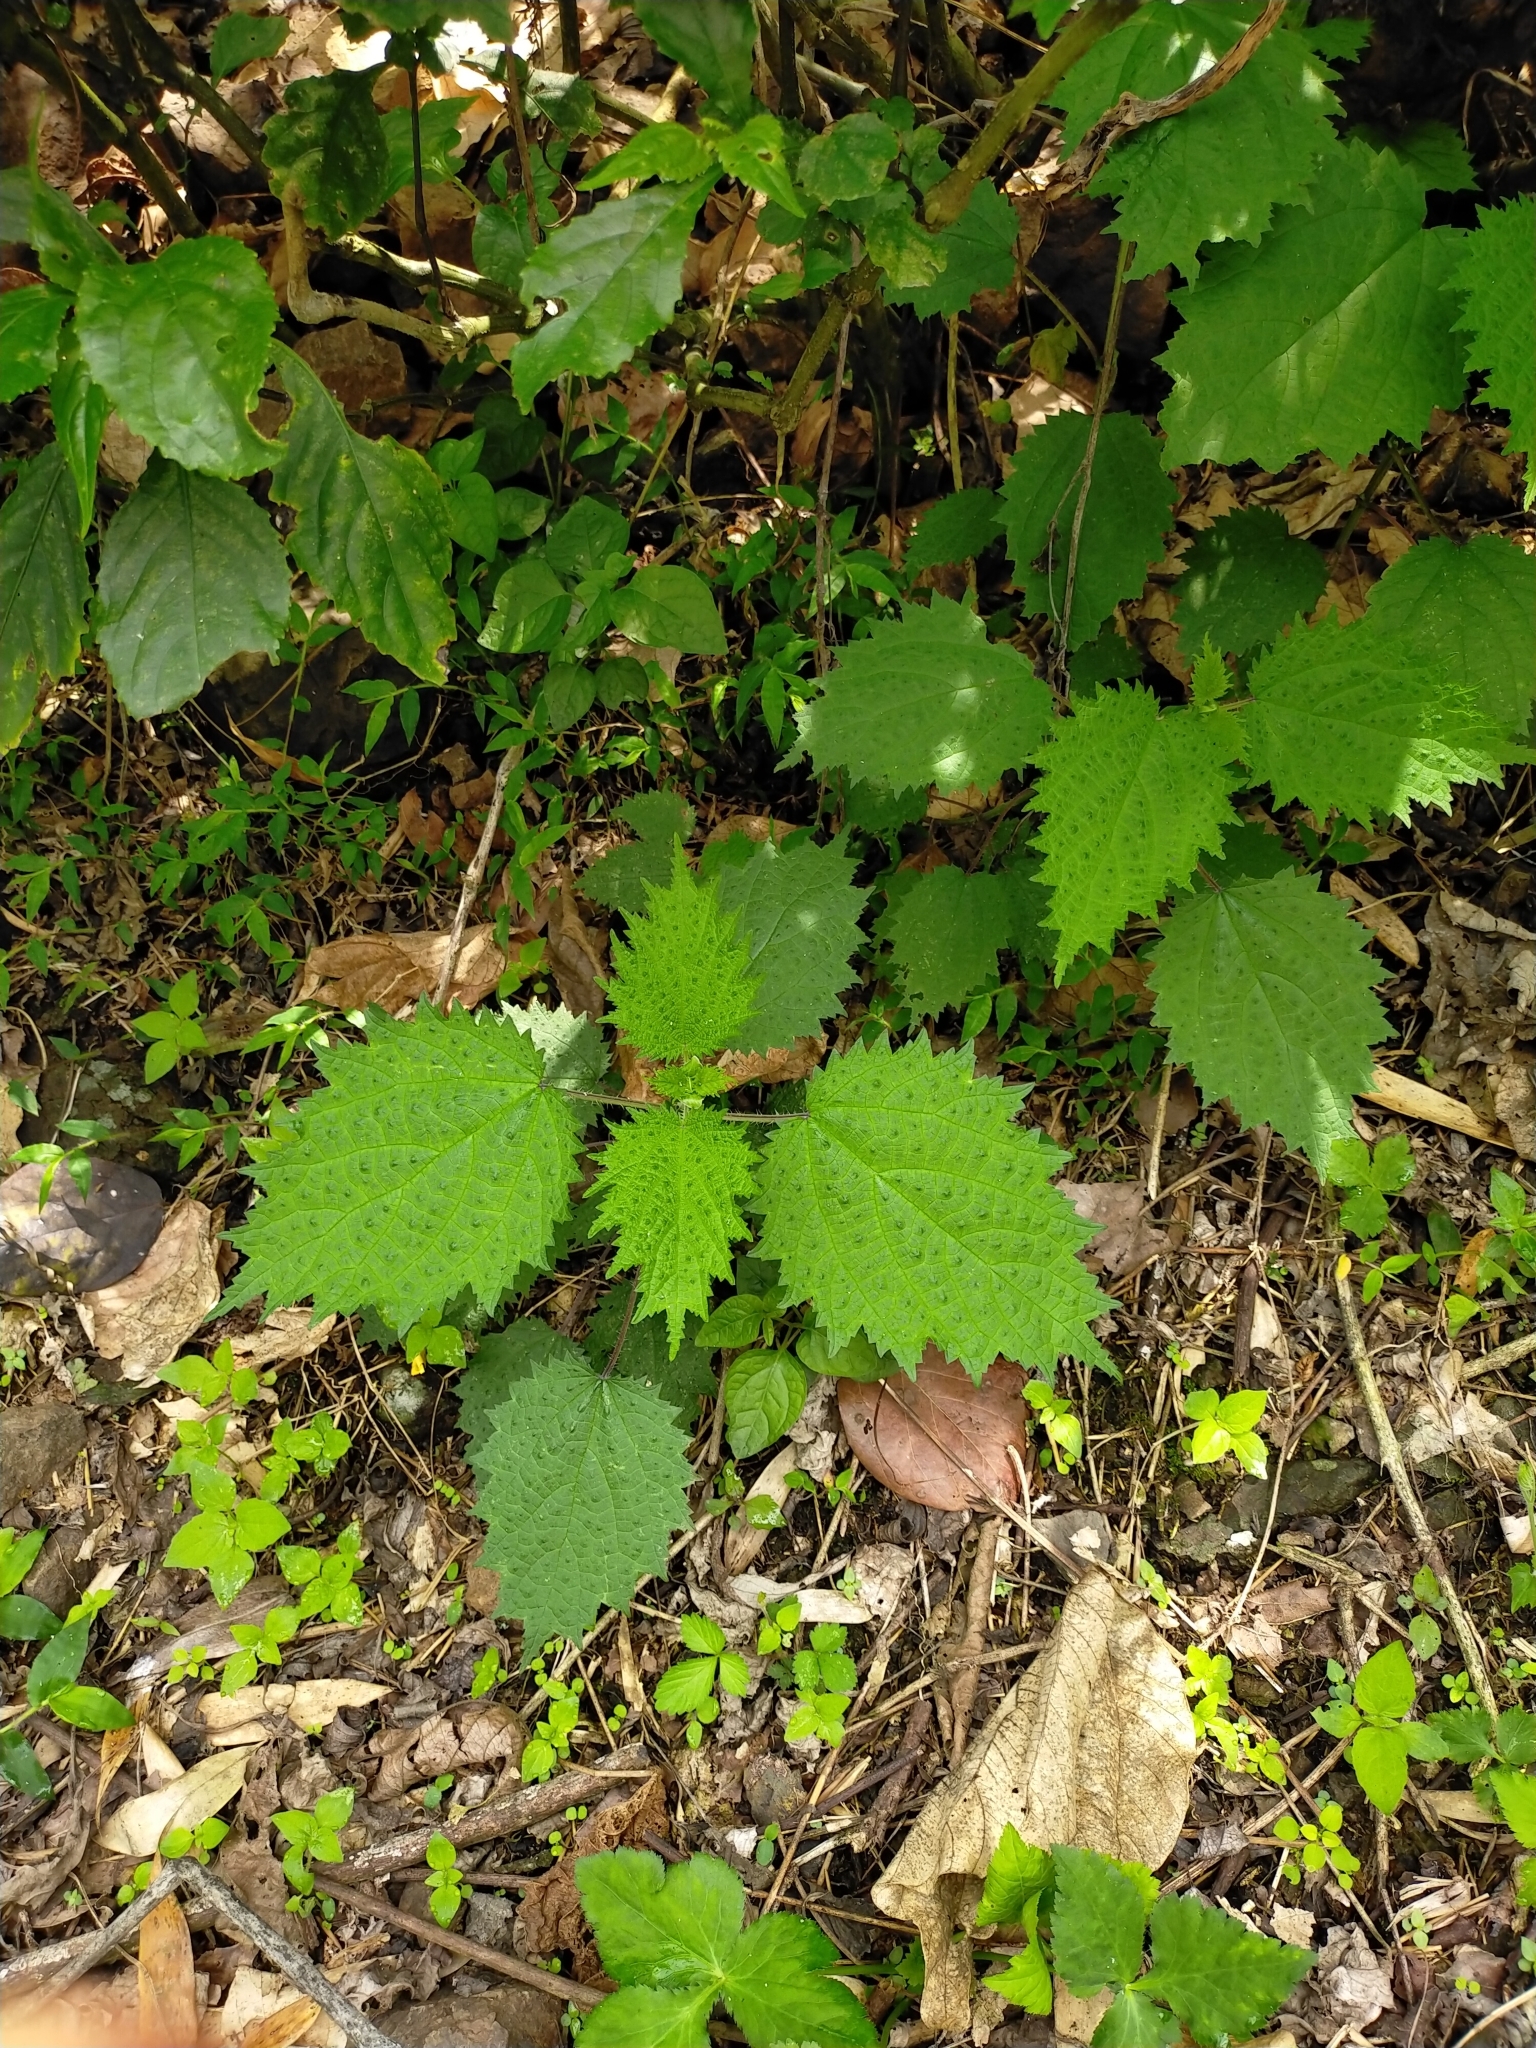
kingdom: Plantae
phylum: Tracheophyta
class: Magnoliopsida
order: Rosales
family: Urticaceae
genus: Urtica
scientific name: Urtica thunbergiana
